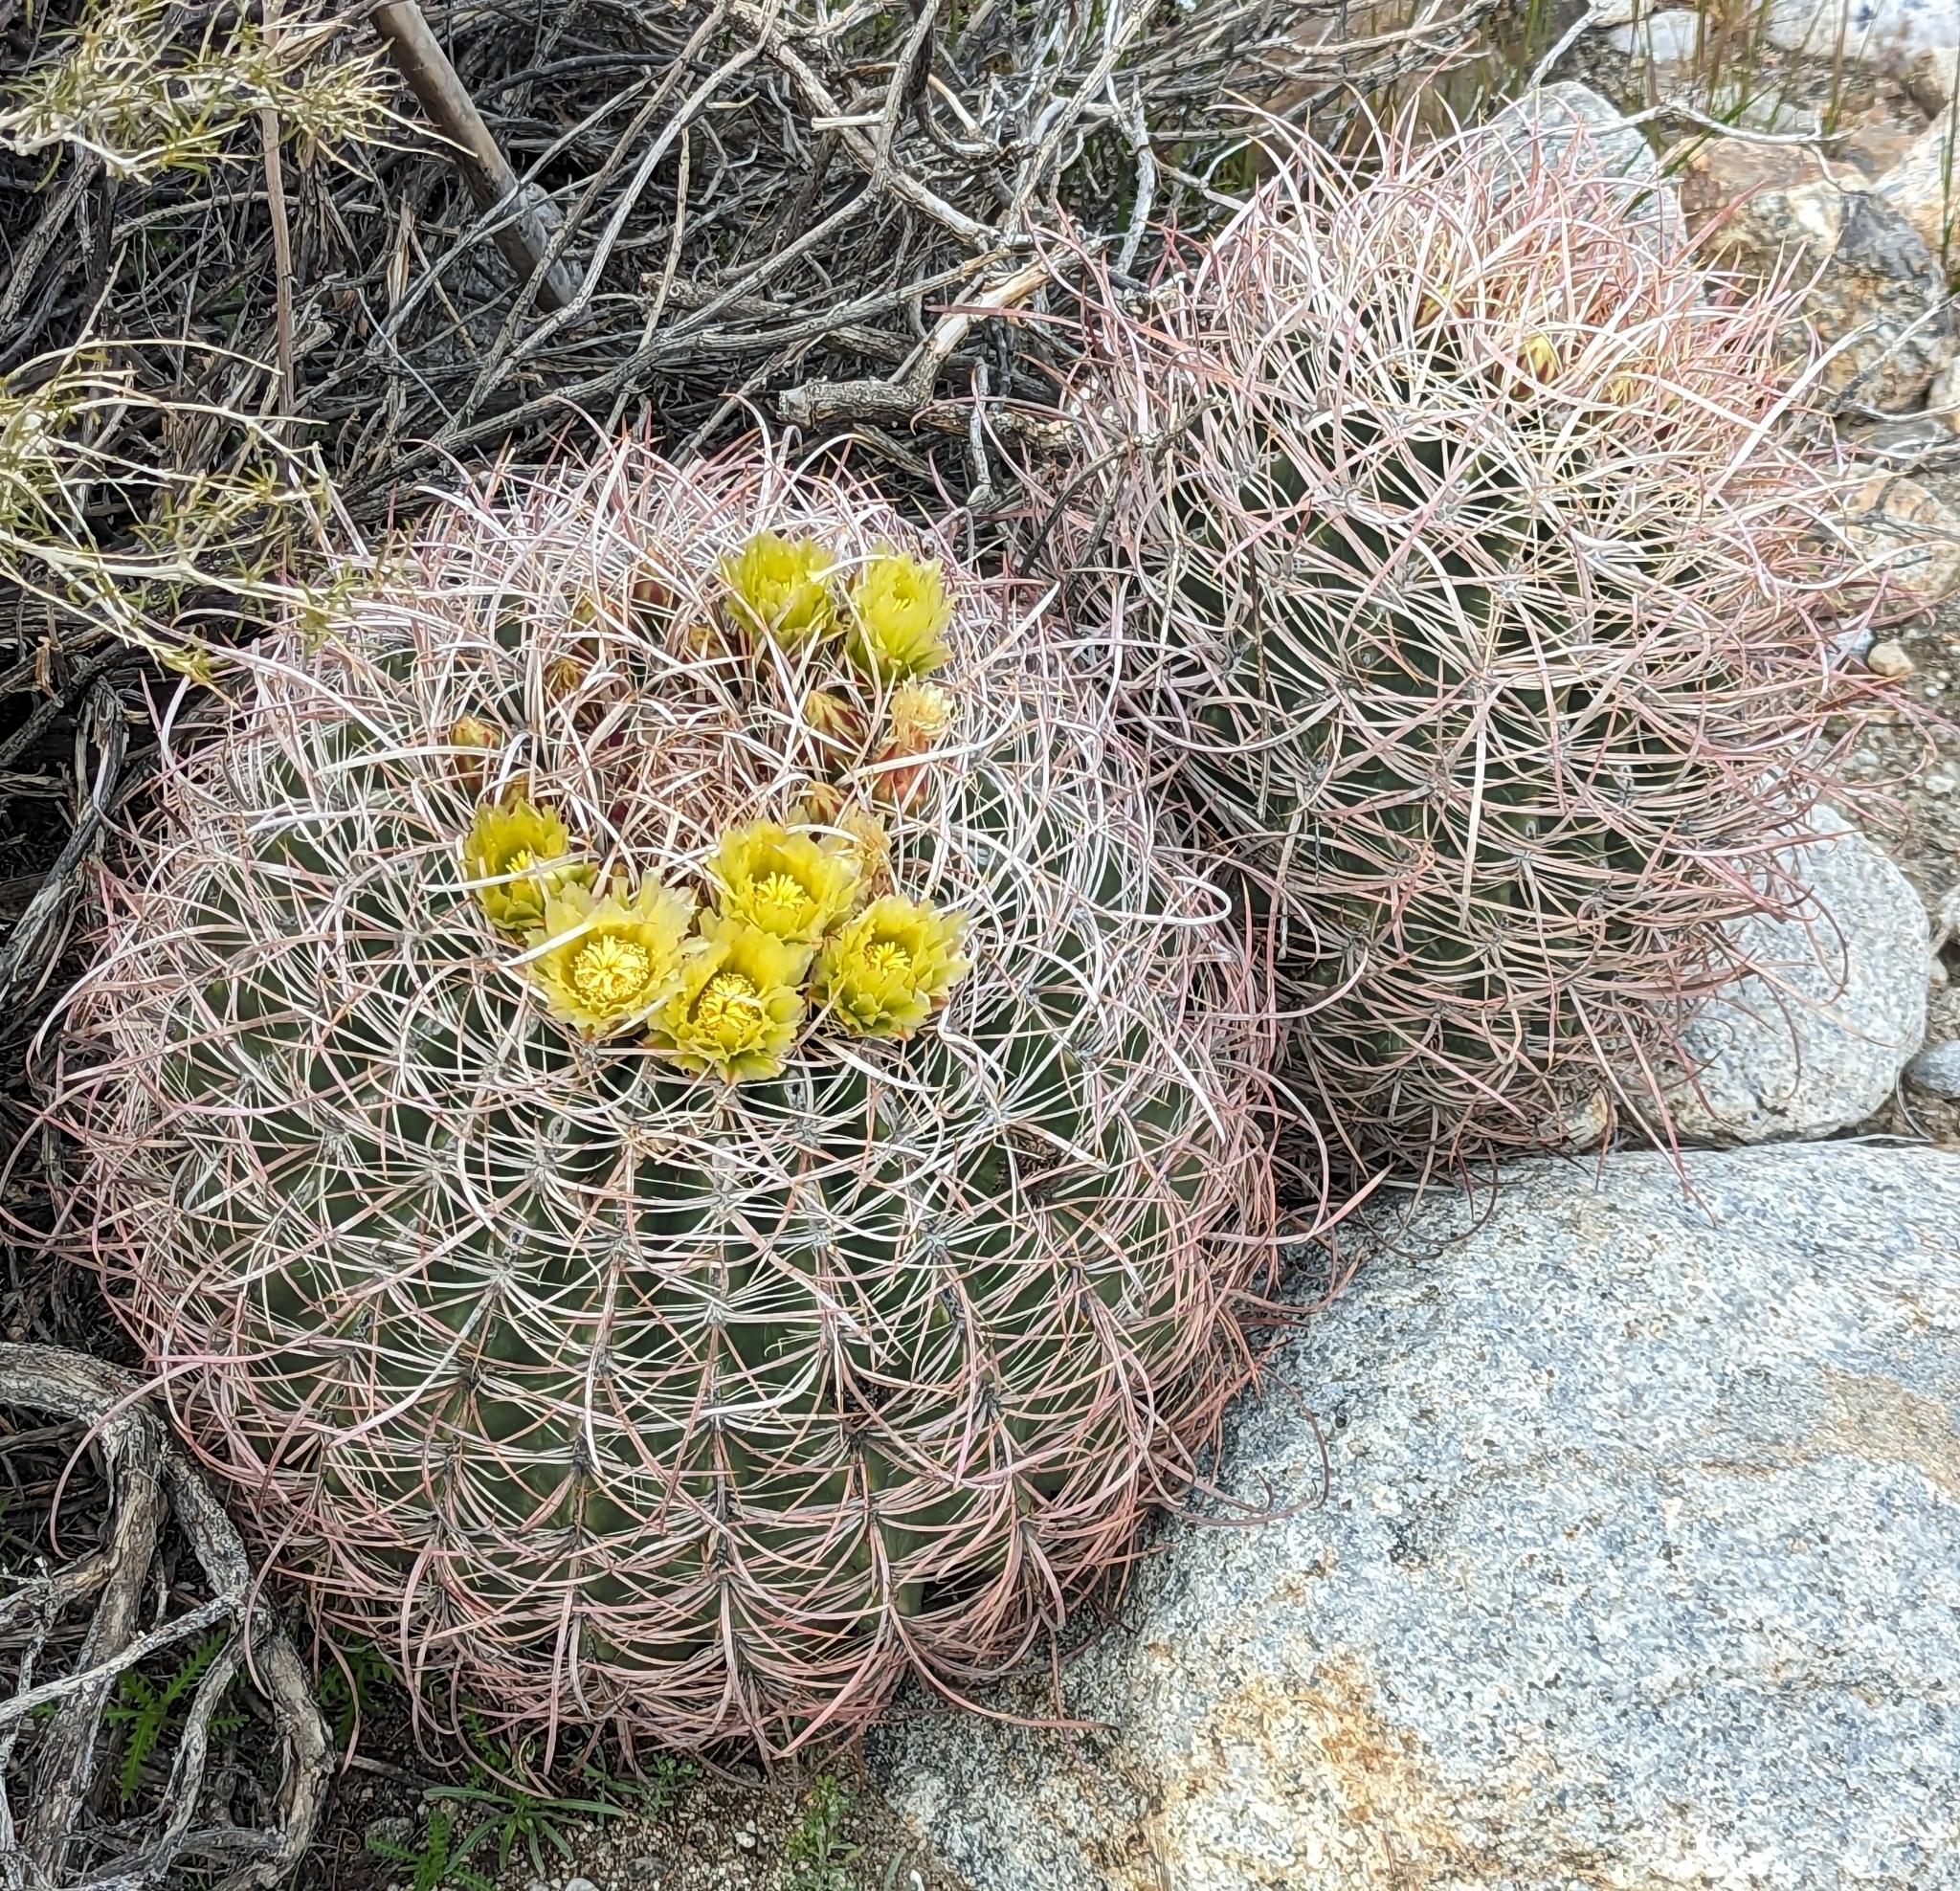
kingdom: Plantae
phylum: Tracheophyta
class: Magnoliopsida
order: Caryophyllales
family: Cactaceae
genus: Ferocactus
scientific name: Ferocactus cylindraceus
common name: California barrel cactus
